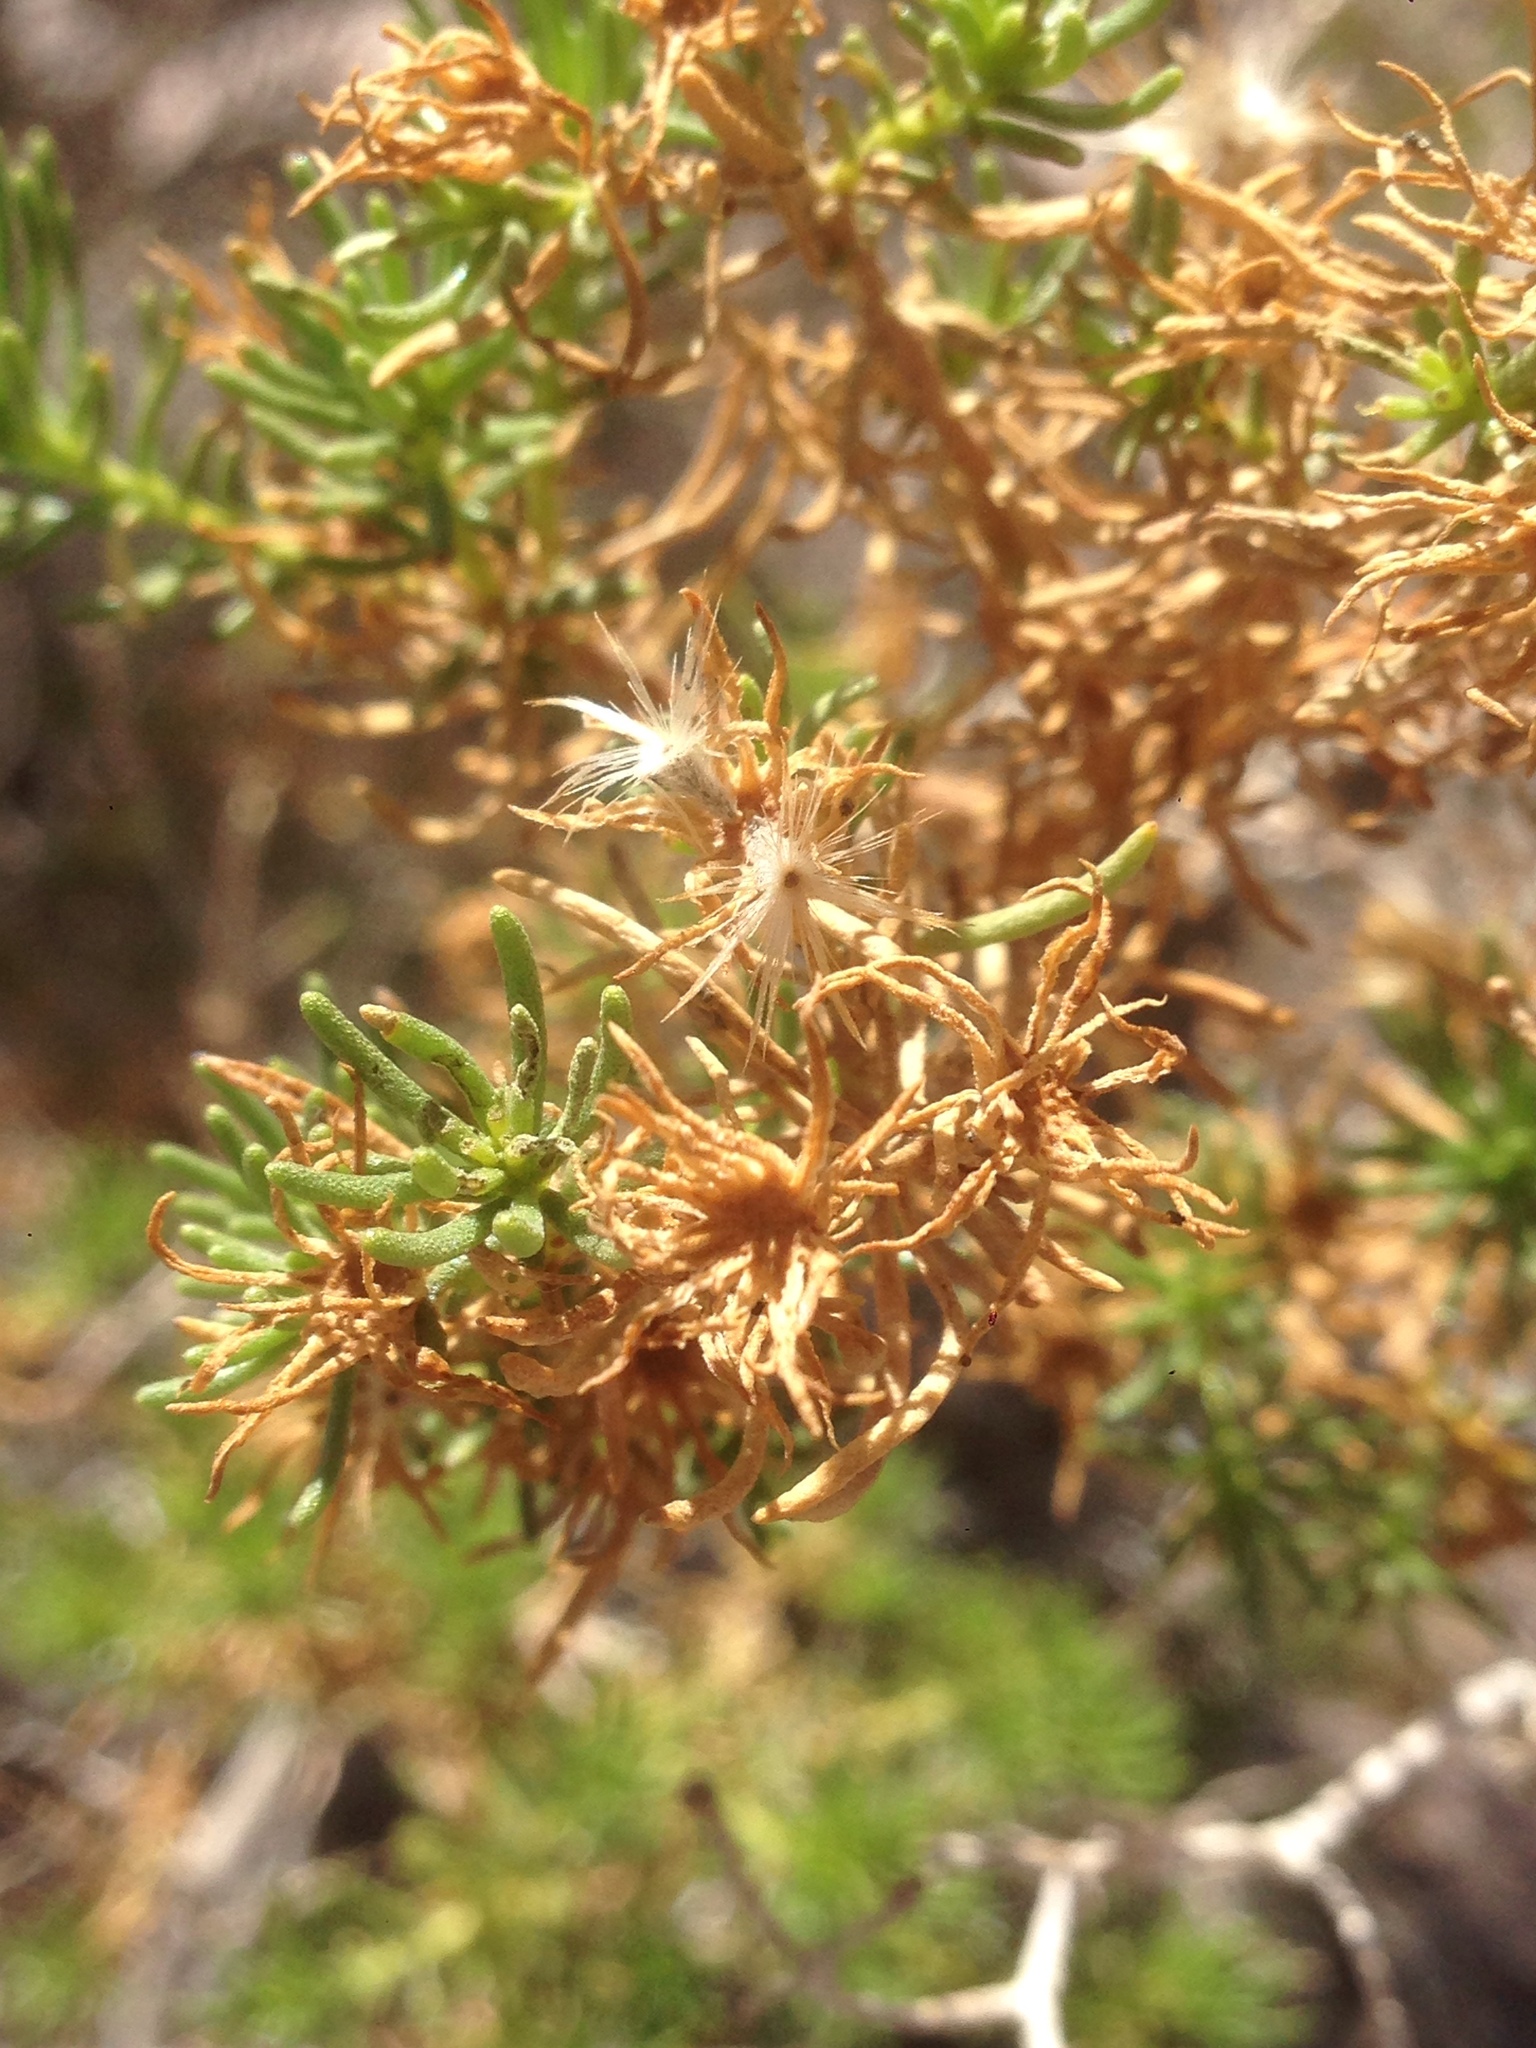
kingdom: Plantae
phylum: Tracheophyta
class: Magnoliopsida
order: Asterales
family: Asteraceae
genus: Peucephyllum
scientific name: Peucephyllum schottii
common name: Pygmy-cedar
